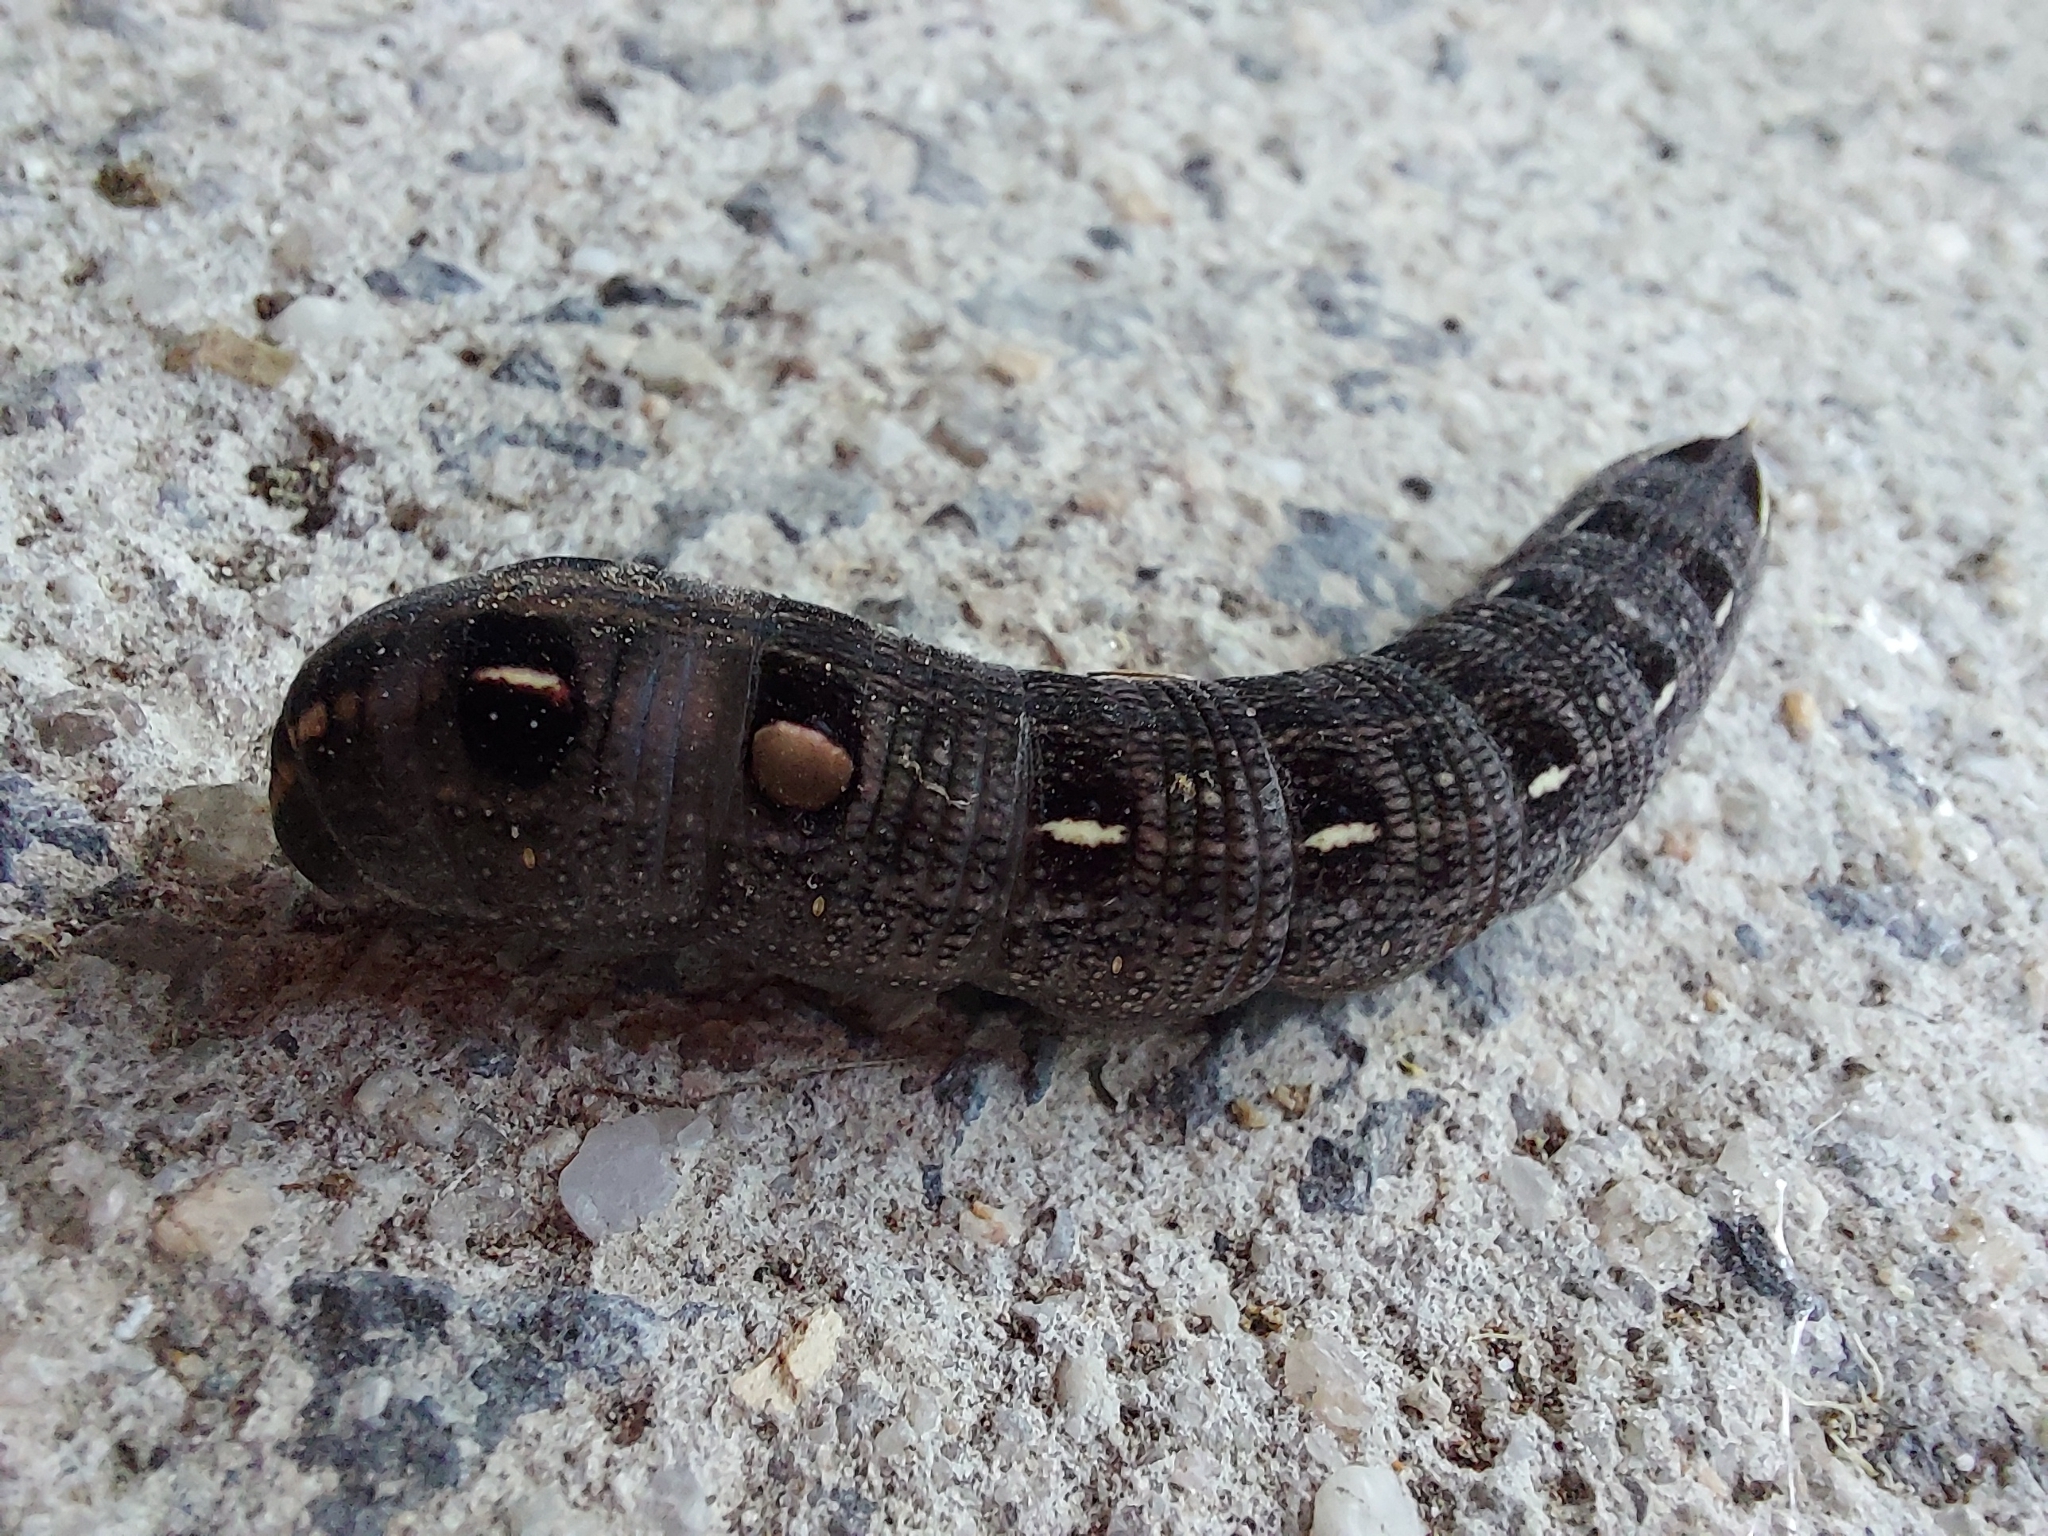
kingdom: Animalia
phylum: Arthropoda
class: Insecta
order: Lepidoptera
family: Sphingidae
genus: Hippotion
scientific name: Hippotion scrofa
